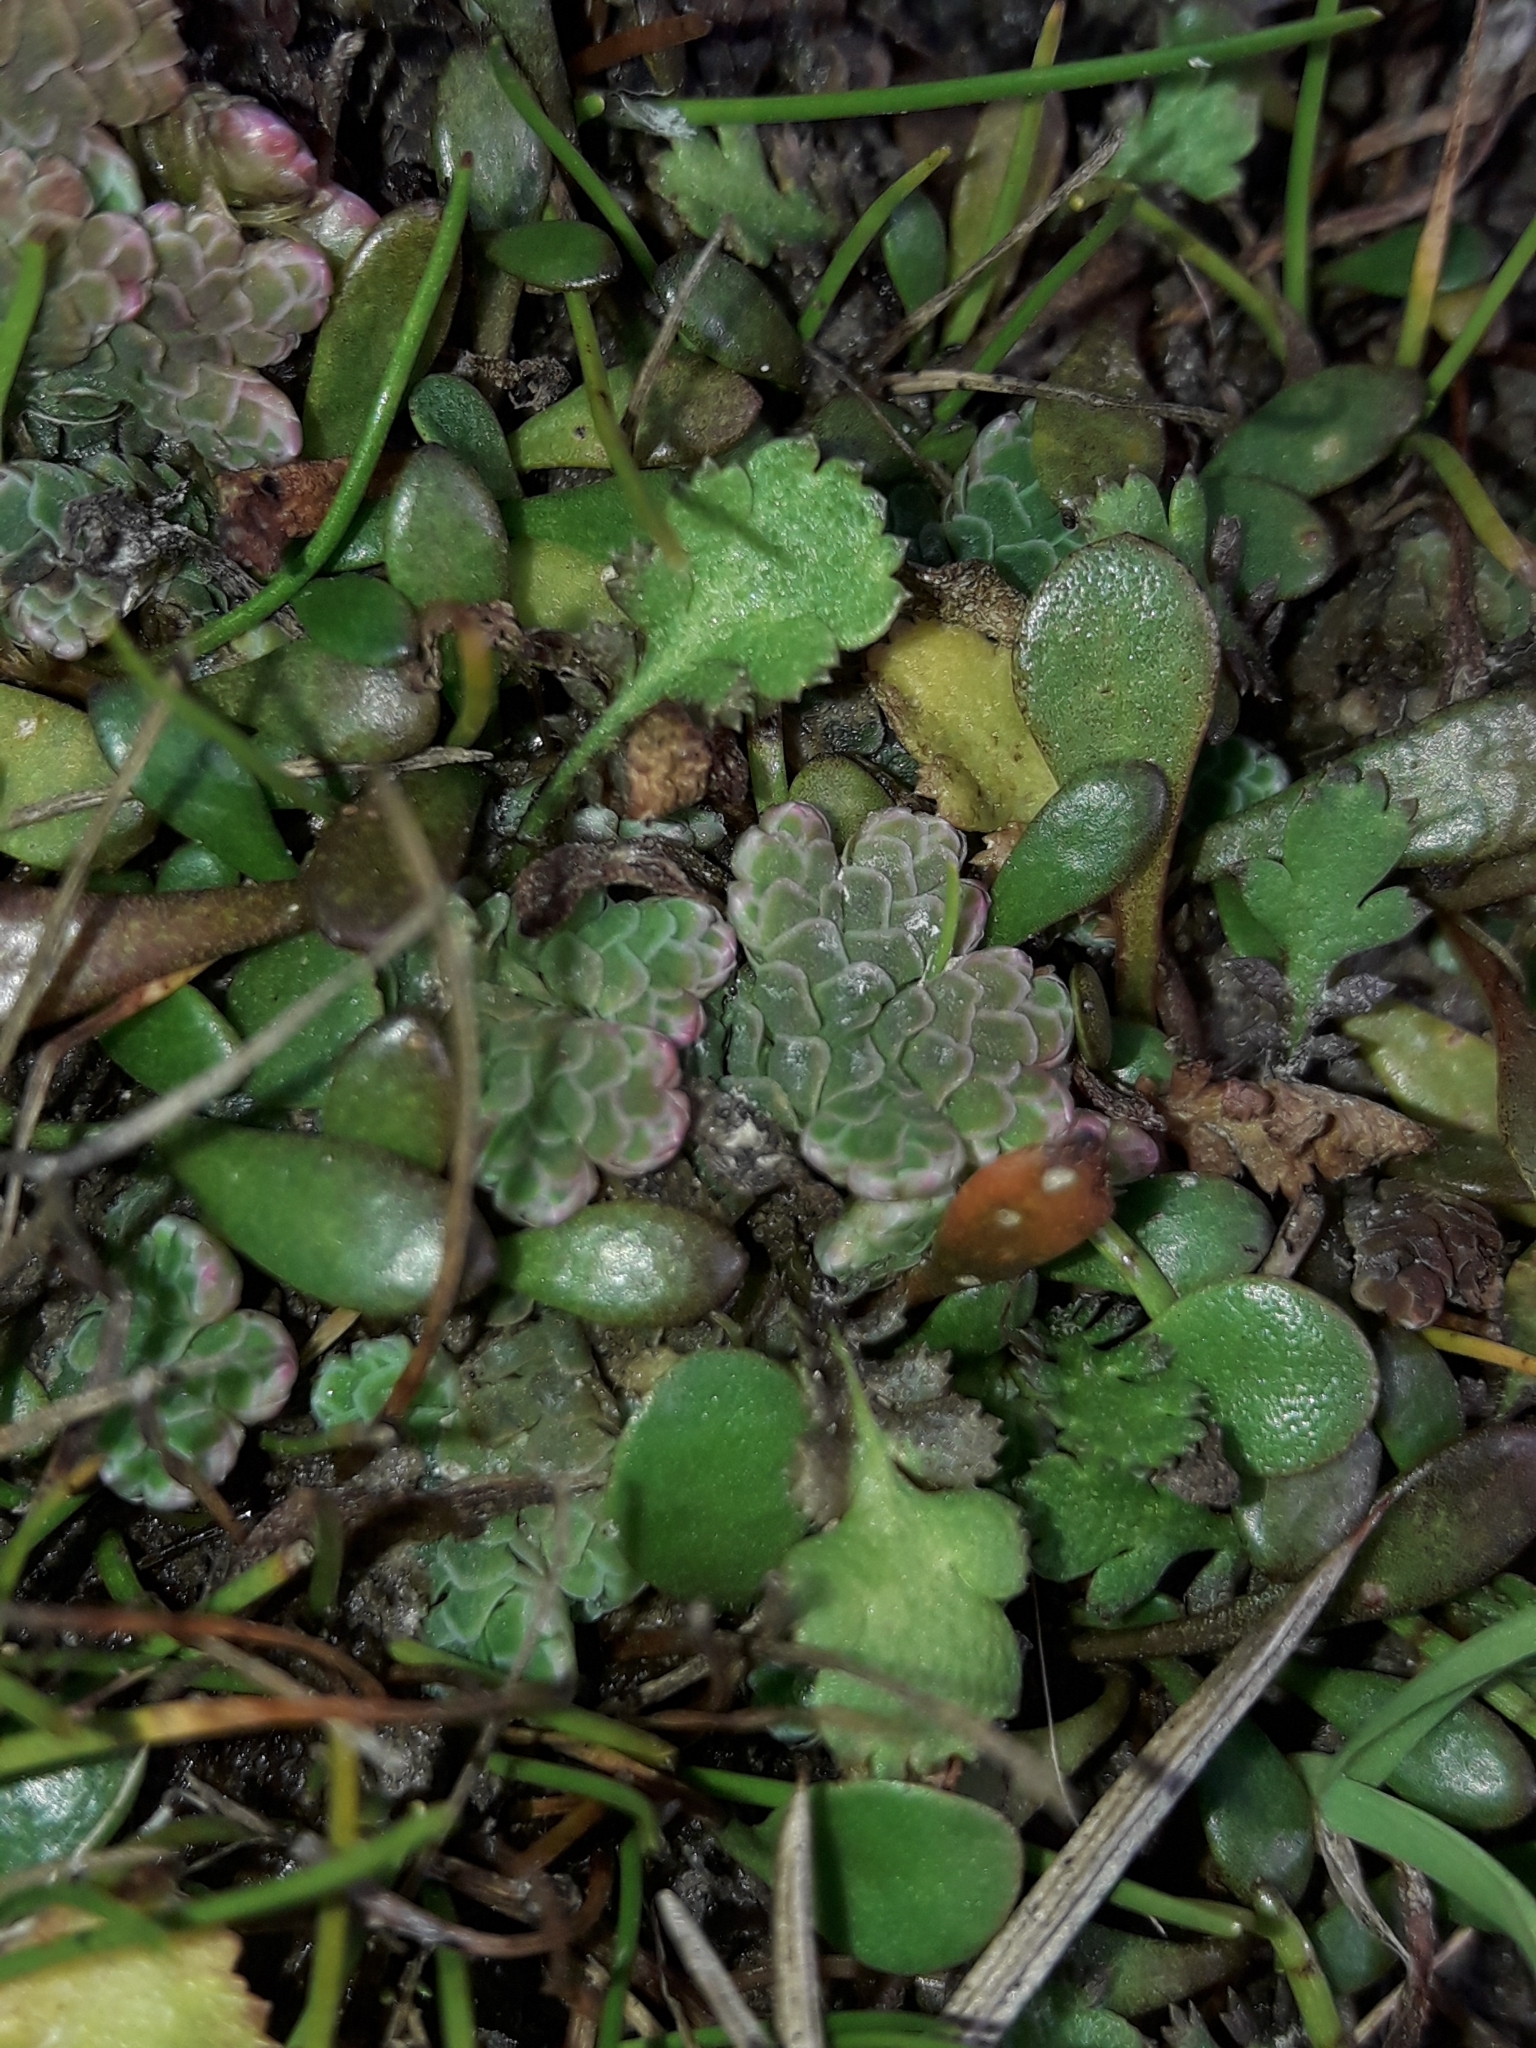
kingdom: Plantae
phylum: Tracheophyta
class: Polypodiopsida
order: Salviniales
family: Salviniaceae
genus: Azolla
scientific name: Azolla rubra
